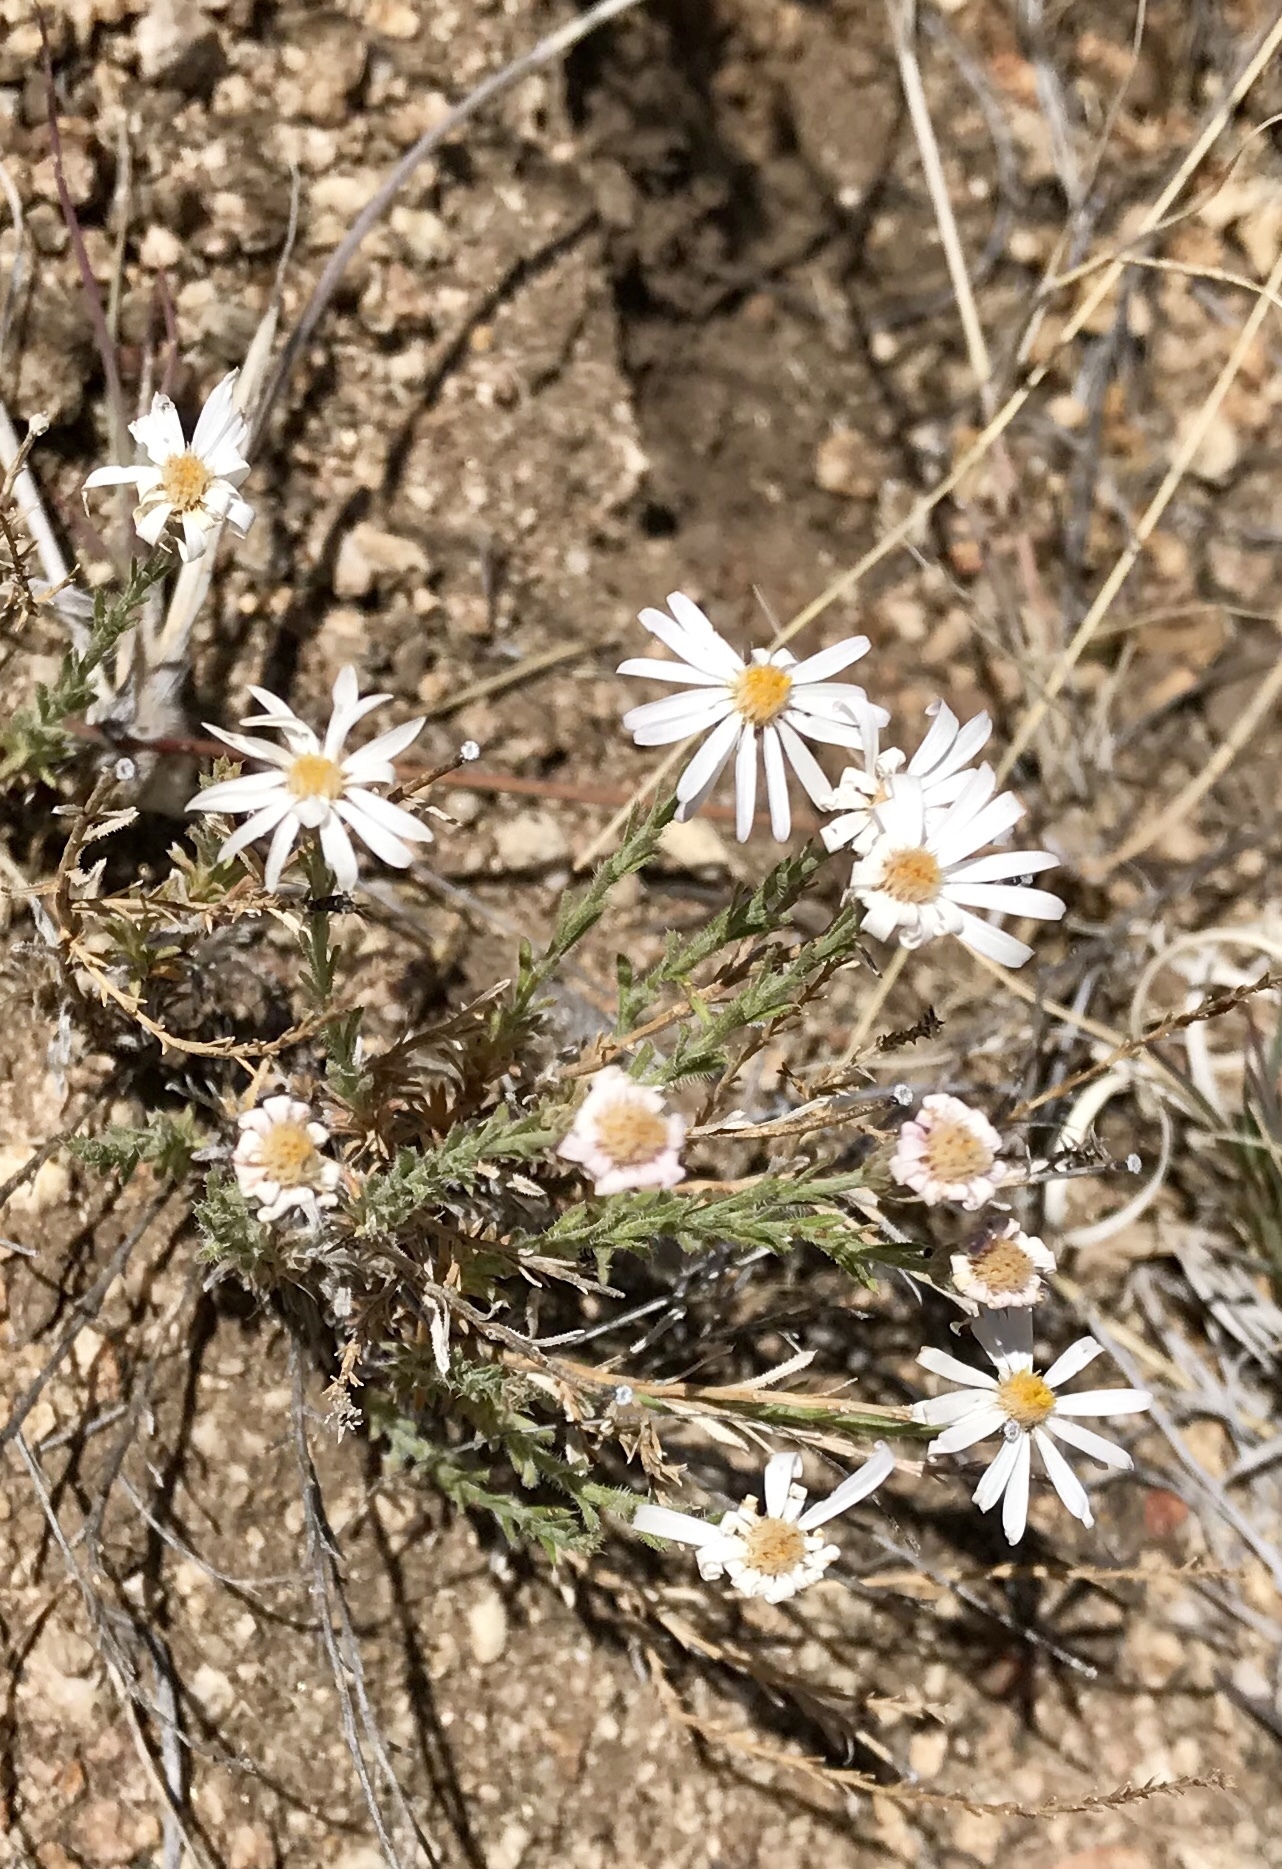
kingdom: Plantae
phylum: Tracheophyta
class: Magnoliopsida
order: Asterales
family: Asteraceae
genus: Chaetopappa
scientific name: Chaetopappa ericoides
